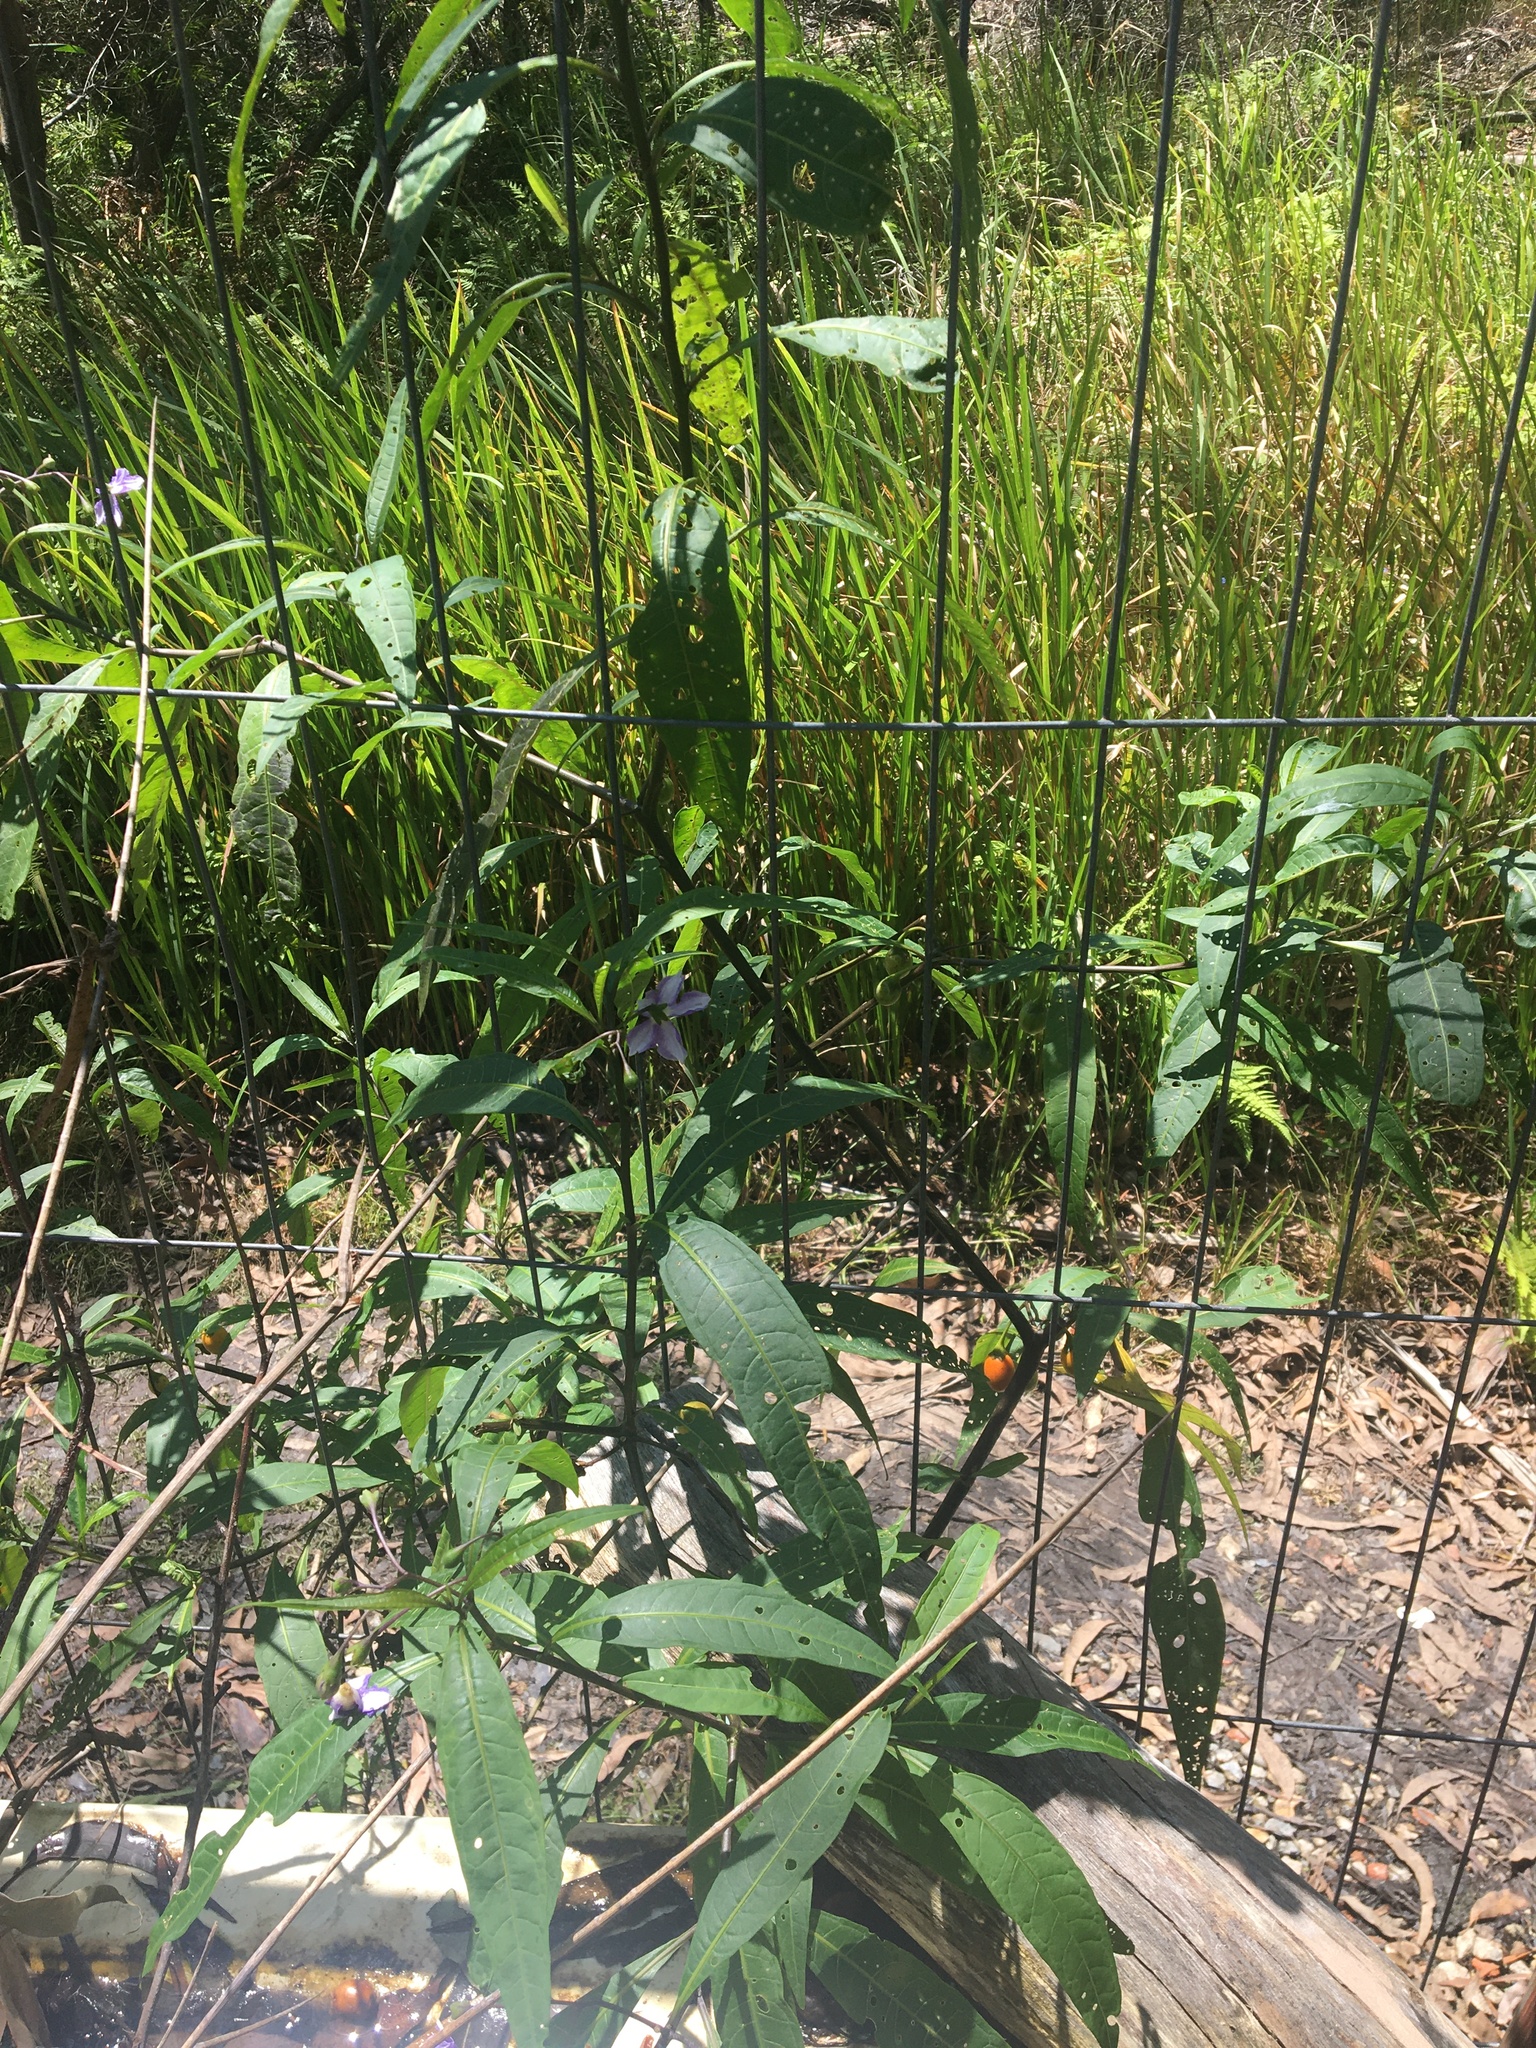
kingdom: Plantae
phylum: Tracheophyta
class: Magnoliopsida
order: Solanales
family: Solanaceae
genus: Solanum
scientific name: Solanum aviculare
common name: New zealand nightshade
